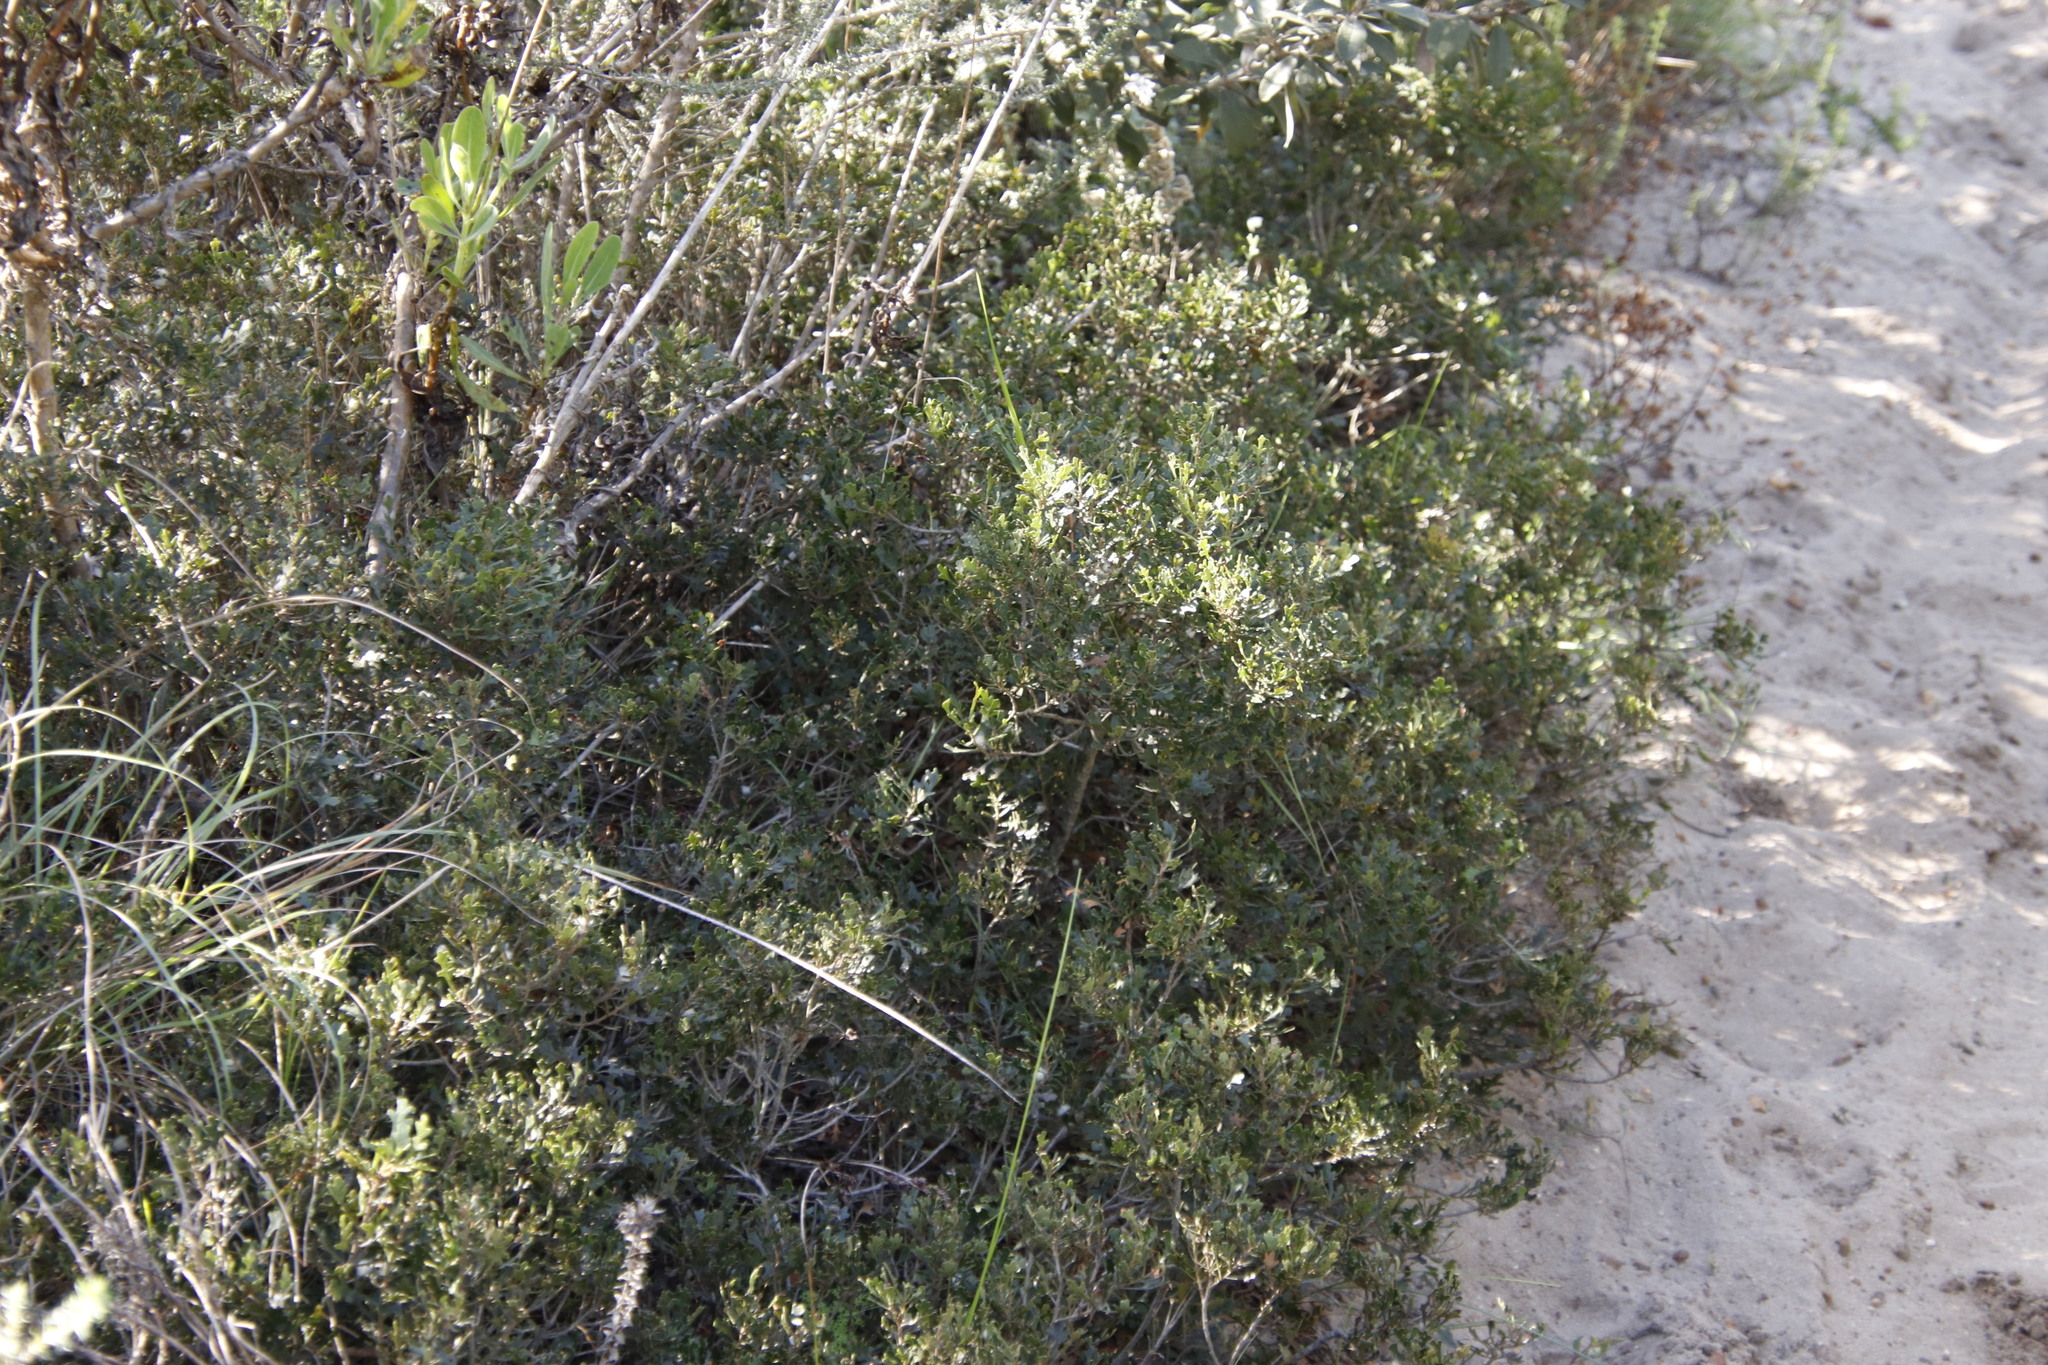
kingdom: Plantae
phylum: Tracheophyta
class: Magnoliopsida
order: Fagales
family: Myricaceae
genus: Morella
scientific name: Morella quercifolia
